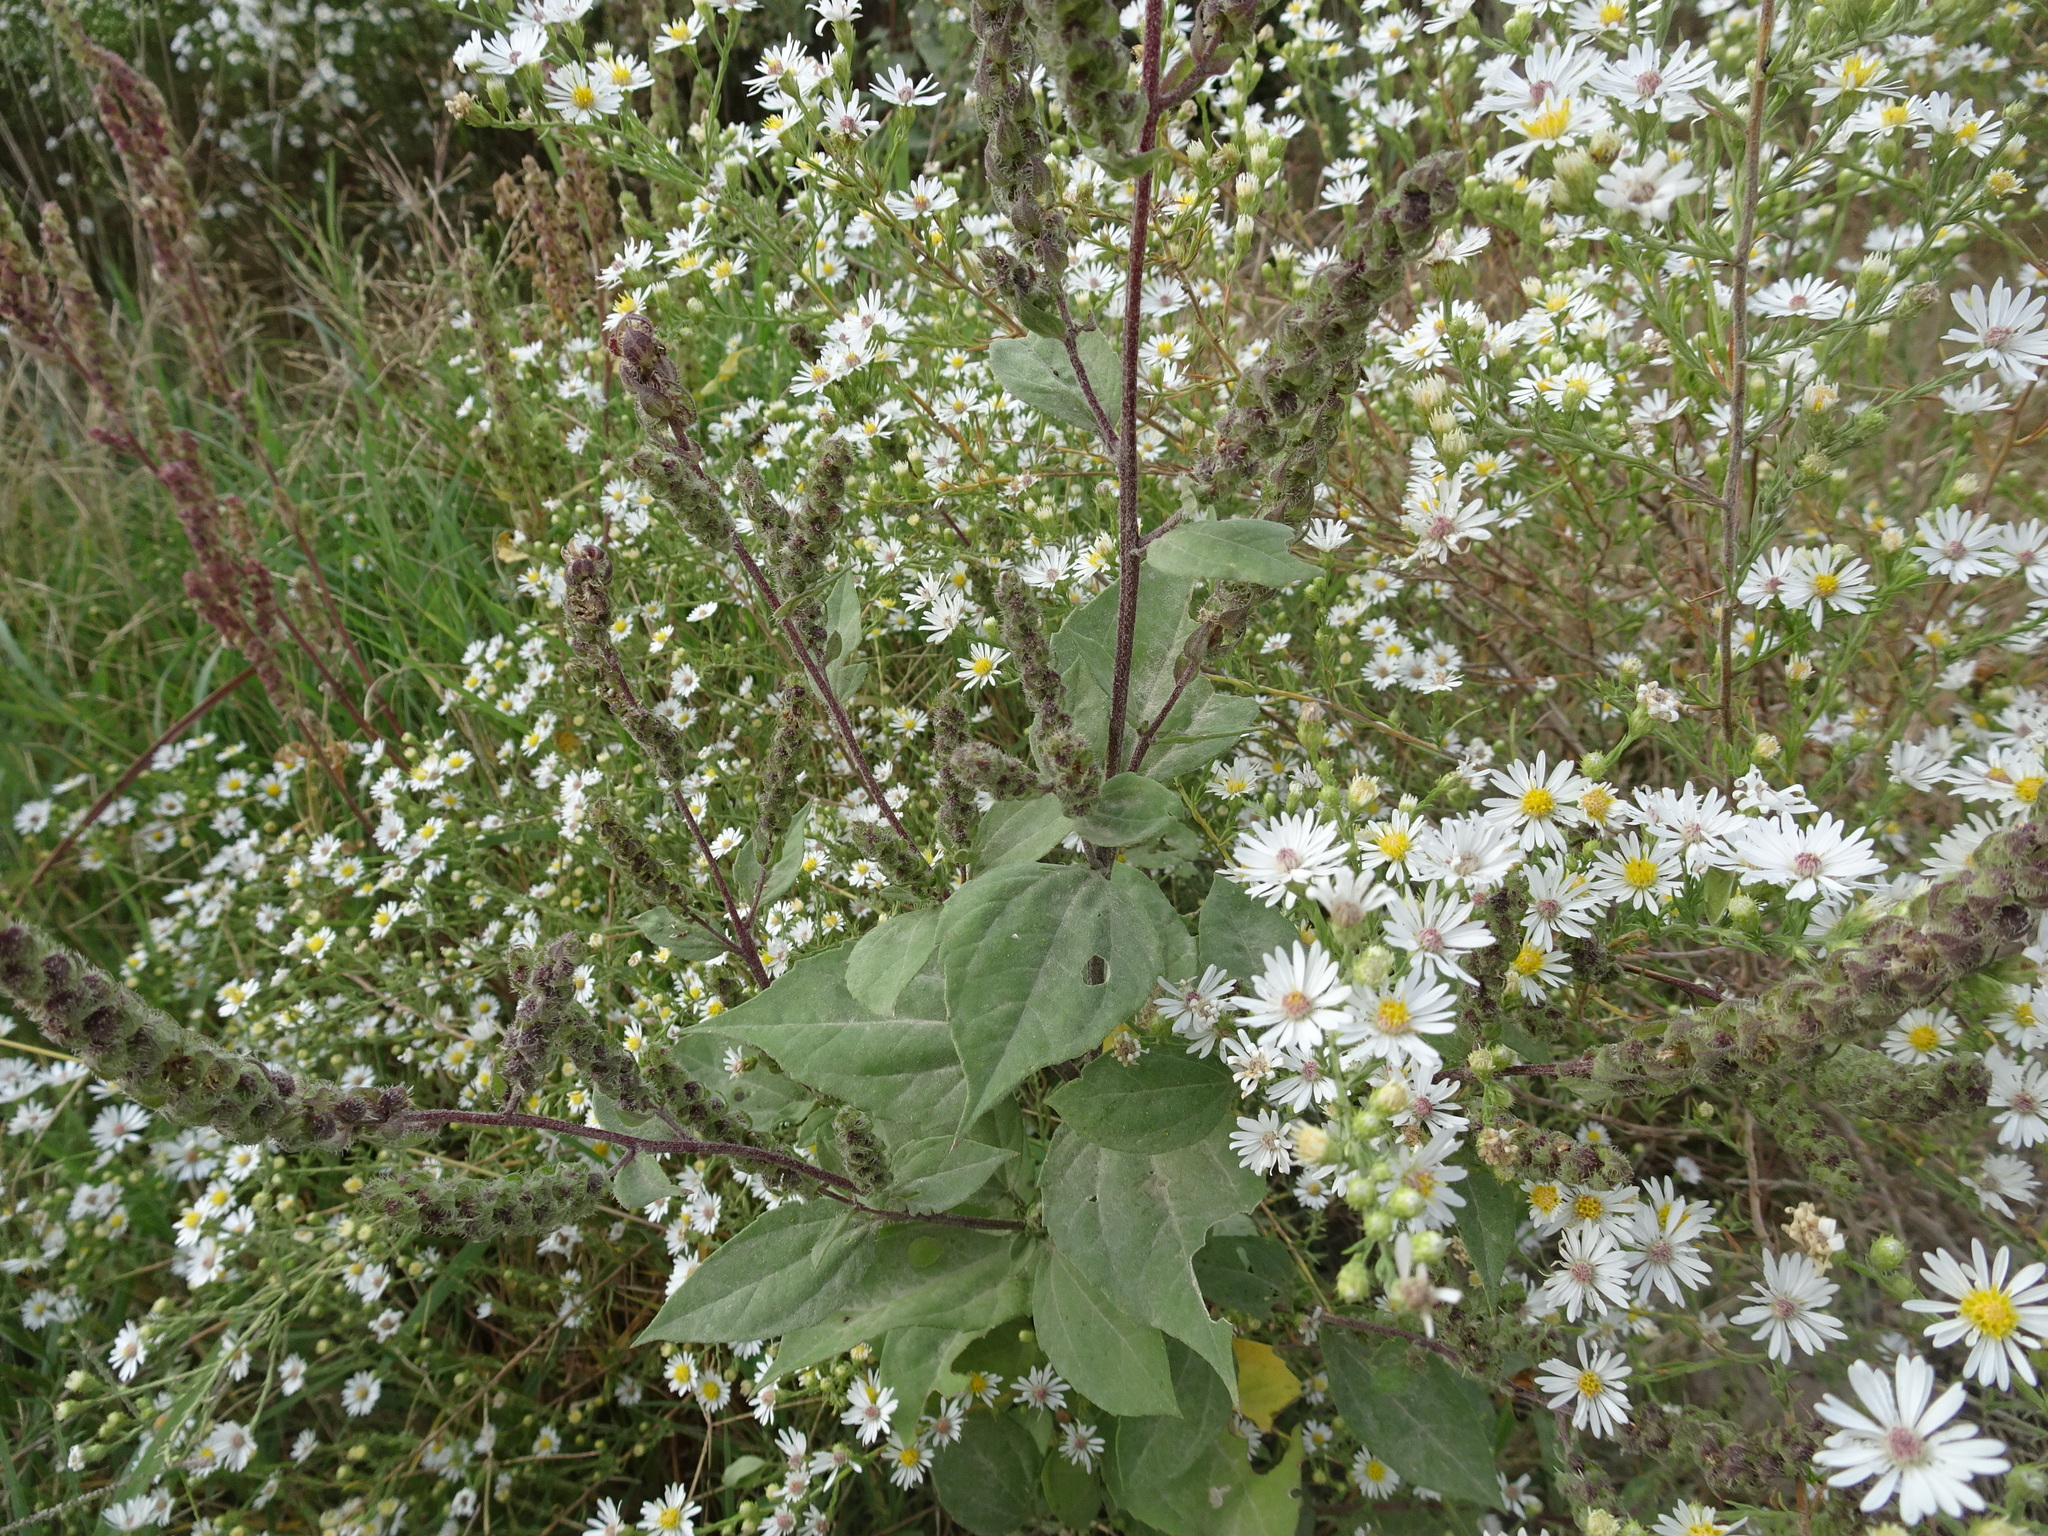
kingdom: Plantae
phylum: Tracheophyta
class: Magnoliopsida
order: Asterales
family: Asteraceae
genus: Iva
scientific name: Iva annua
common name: Marsh-elder
